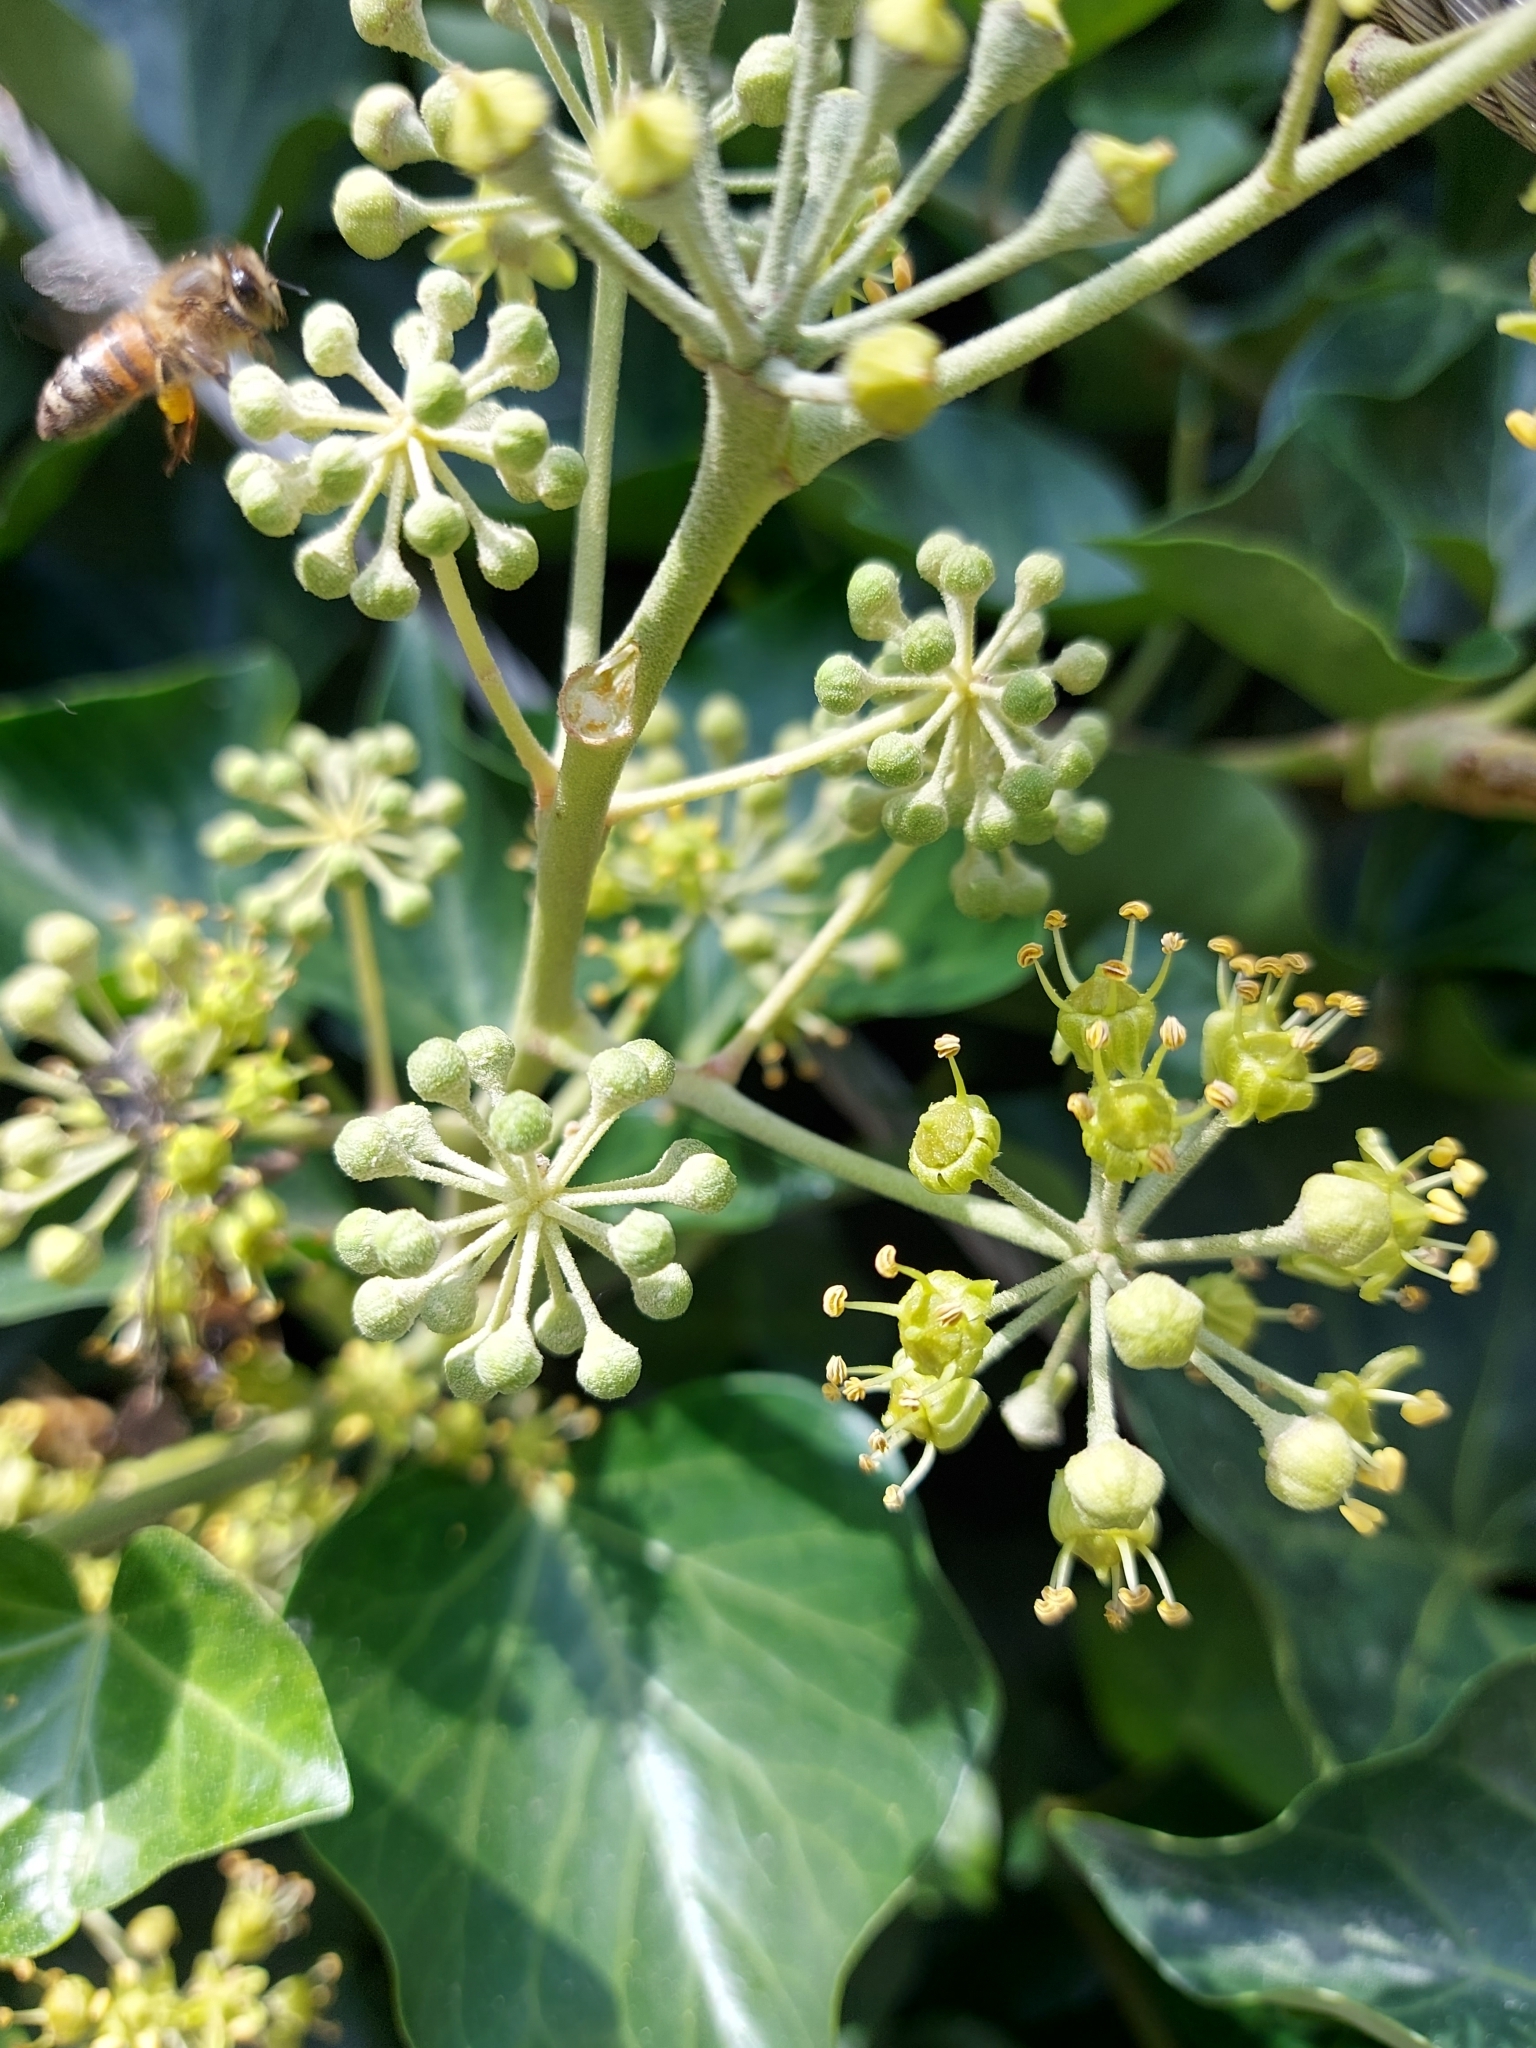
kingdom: Animalia
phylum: Arthropoda
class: Insecta
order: Hymenoptera
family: Apidae
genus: Apis
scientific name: Apis mellifera
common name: Honey bee
